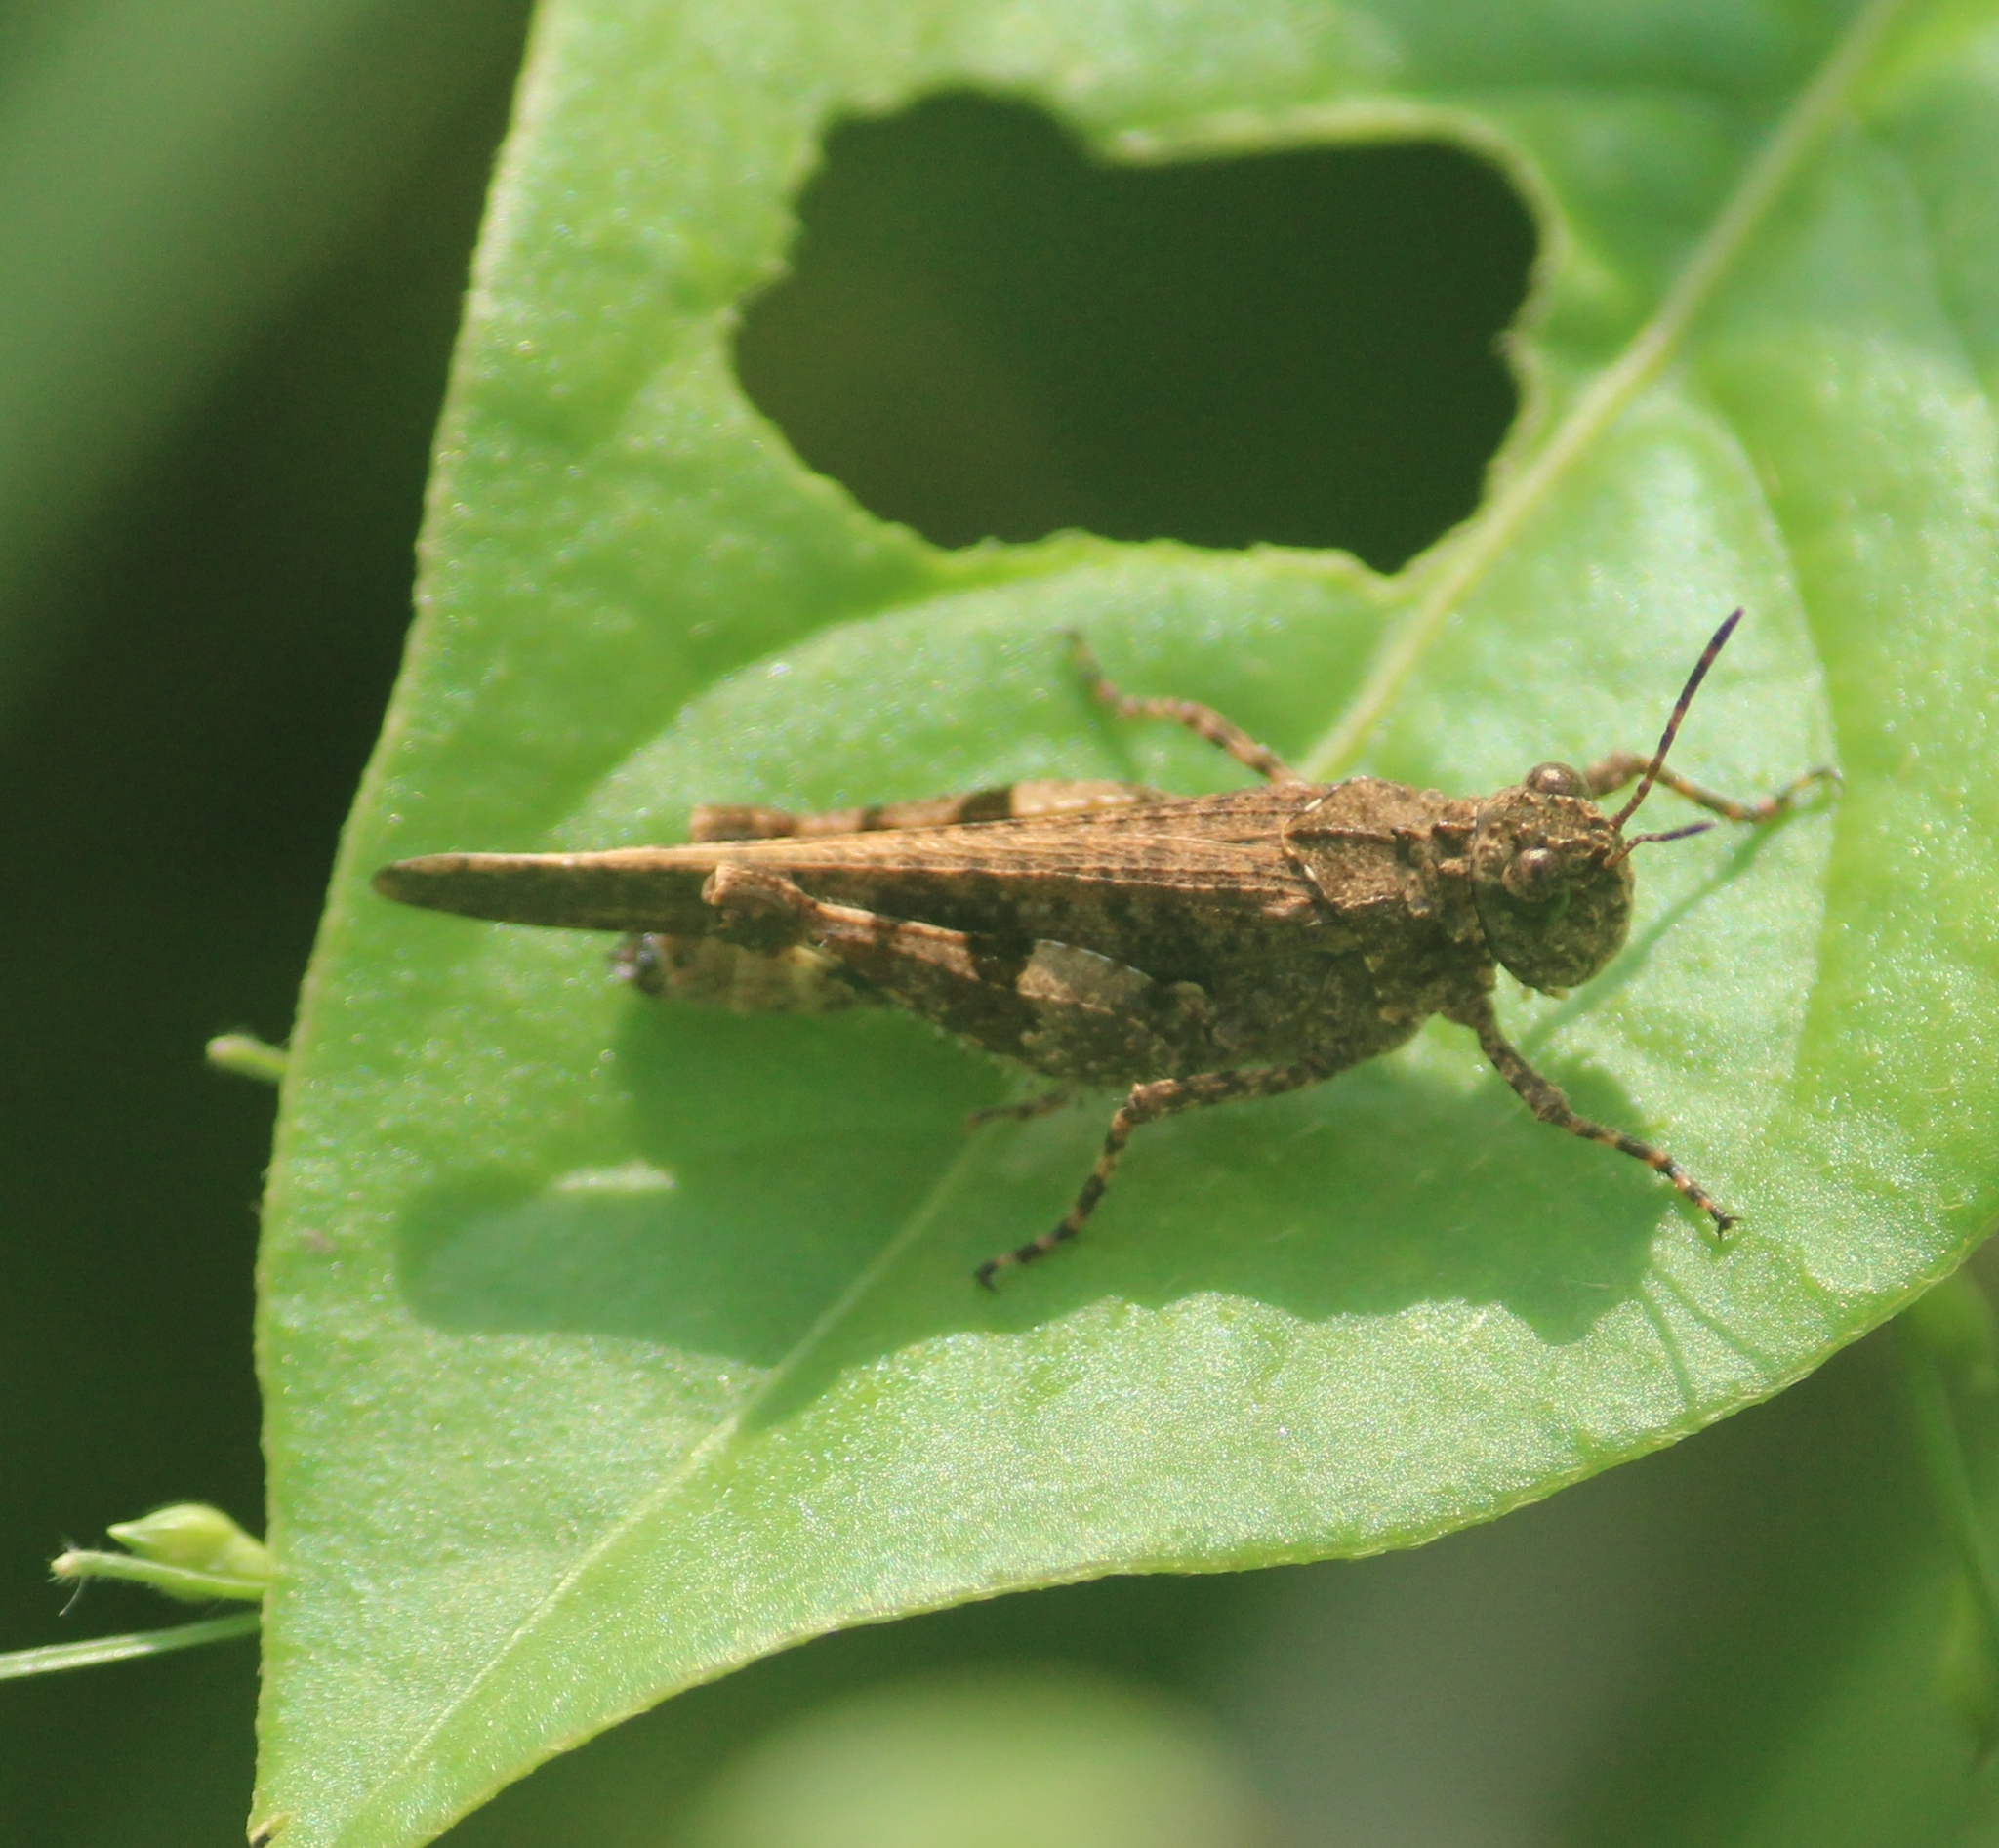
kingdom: Animalia
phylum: Arthropoda
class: Insecta
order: Orthoptera
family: Acrididae
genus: Trilophidia
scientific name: Trilophidia annulata
